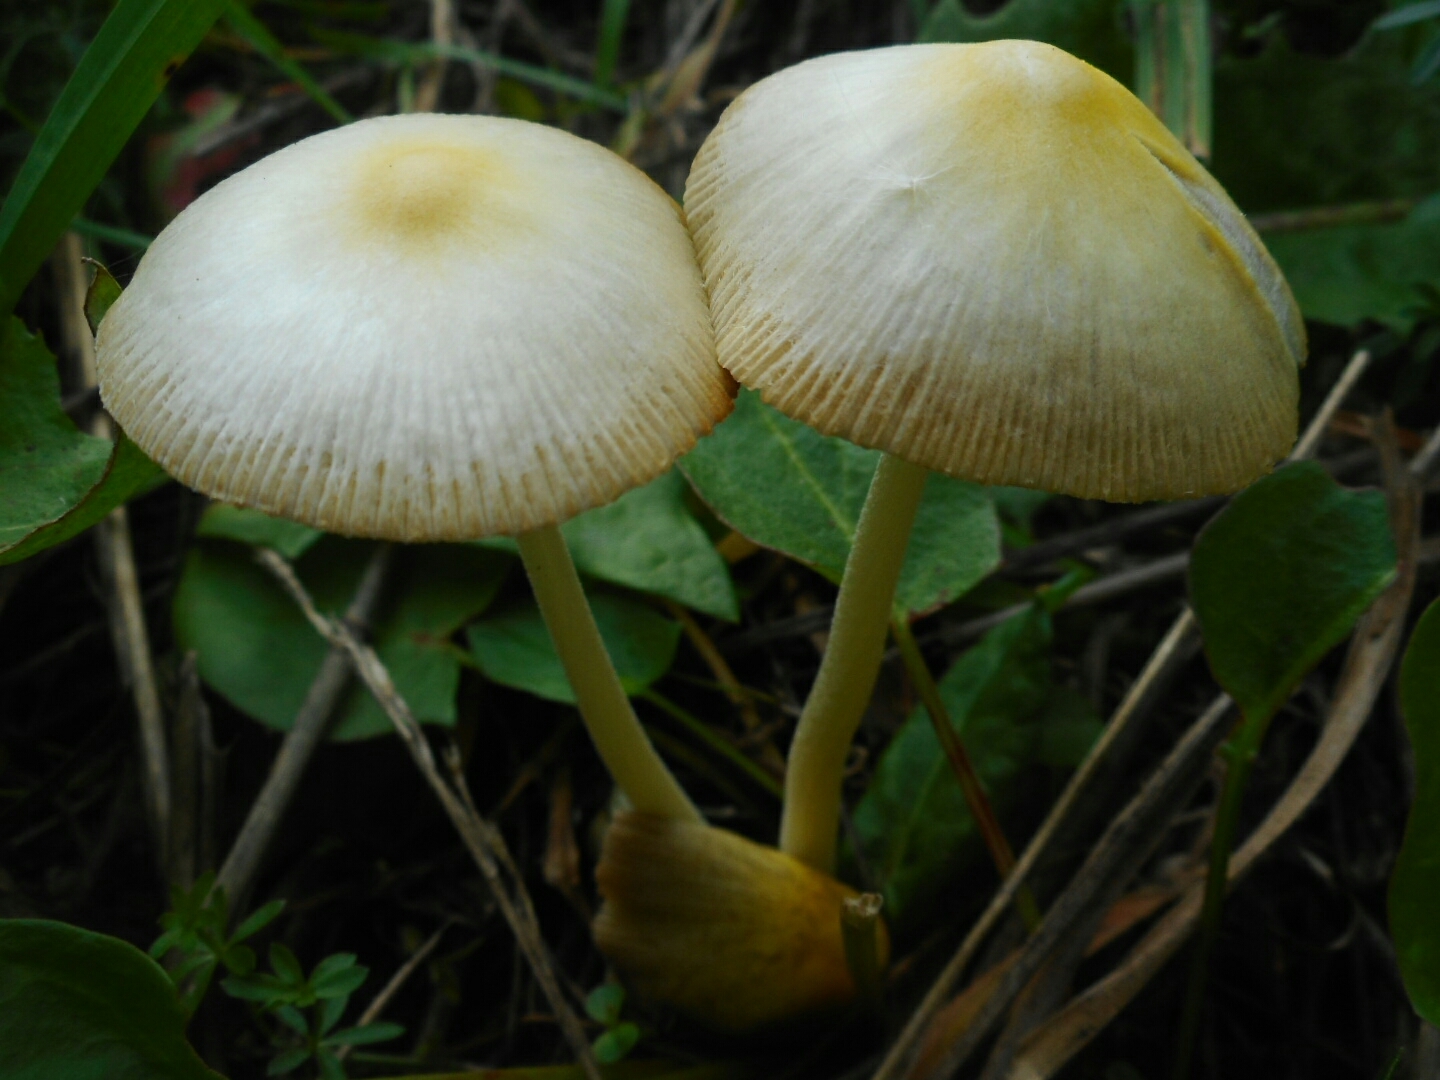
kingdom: Fungi
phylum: Basidiomycota
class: Agaricomycetes
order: Agaricales
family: Bolbitiaceae
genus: Bolbitius
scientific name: Bolbitius titubans
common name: Yellow fieldcap
